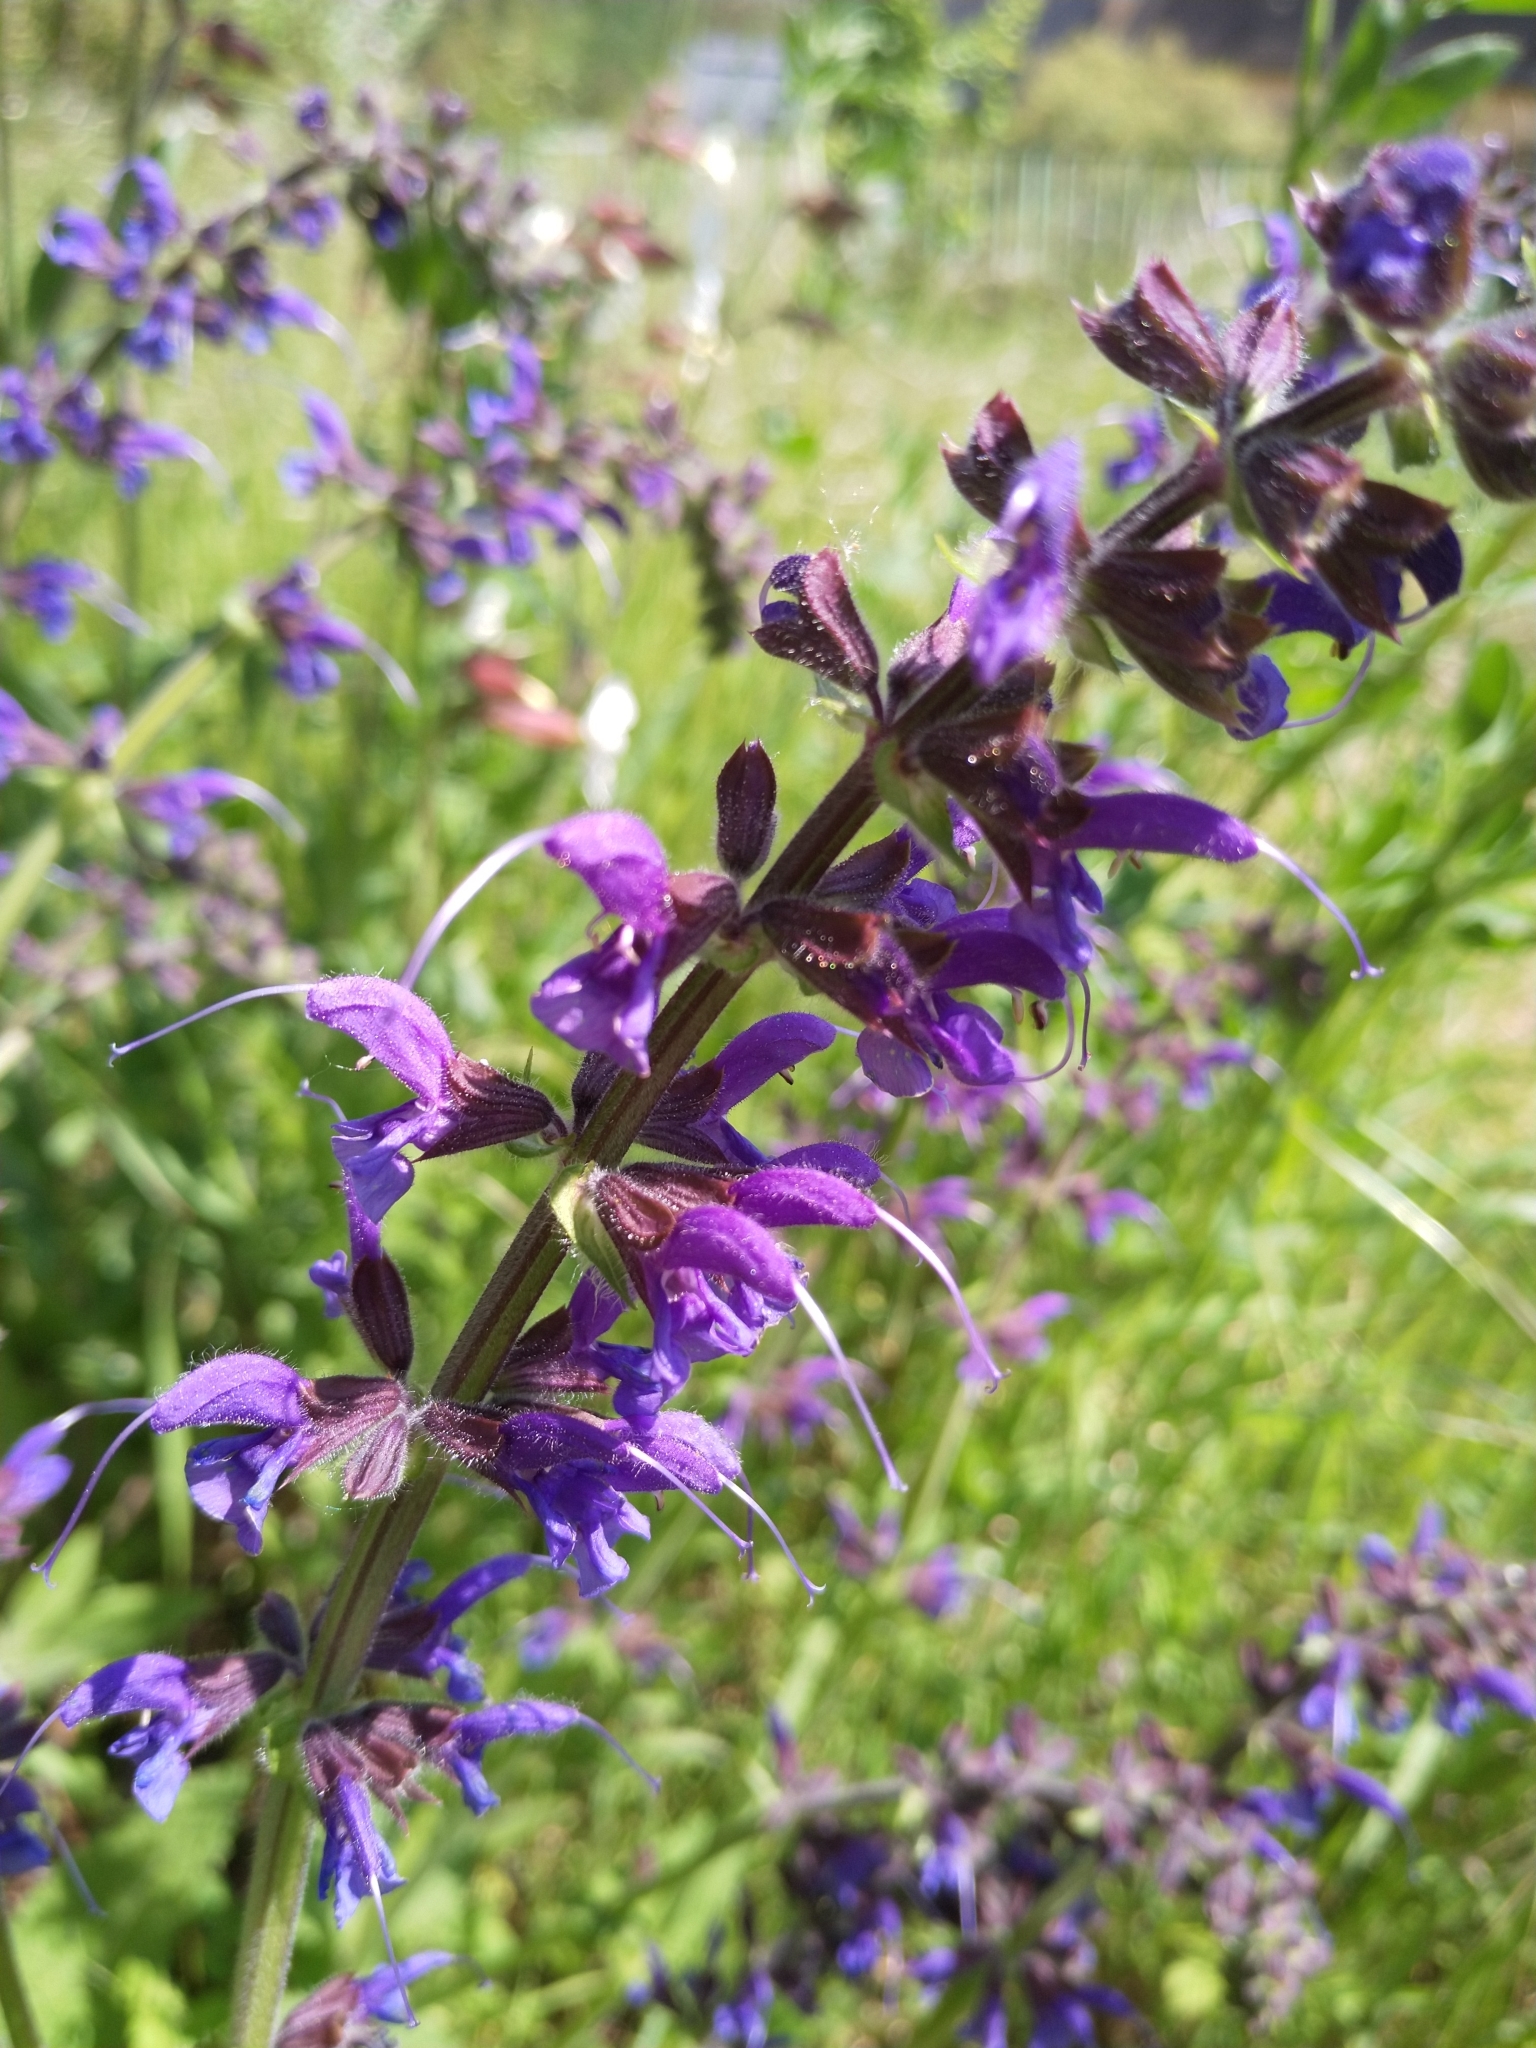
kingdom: Plantae
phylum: Tracheophyta
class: Magnoliopsida
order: Lamiales
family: Lamiaceae
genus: Salvia
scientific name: Salvia pratensis
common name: Meadow sage
